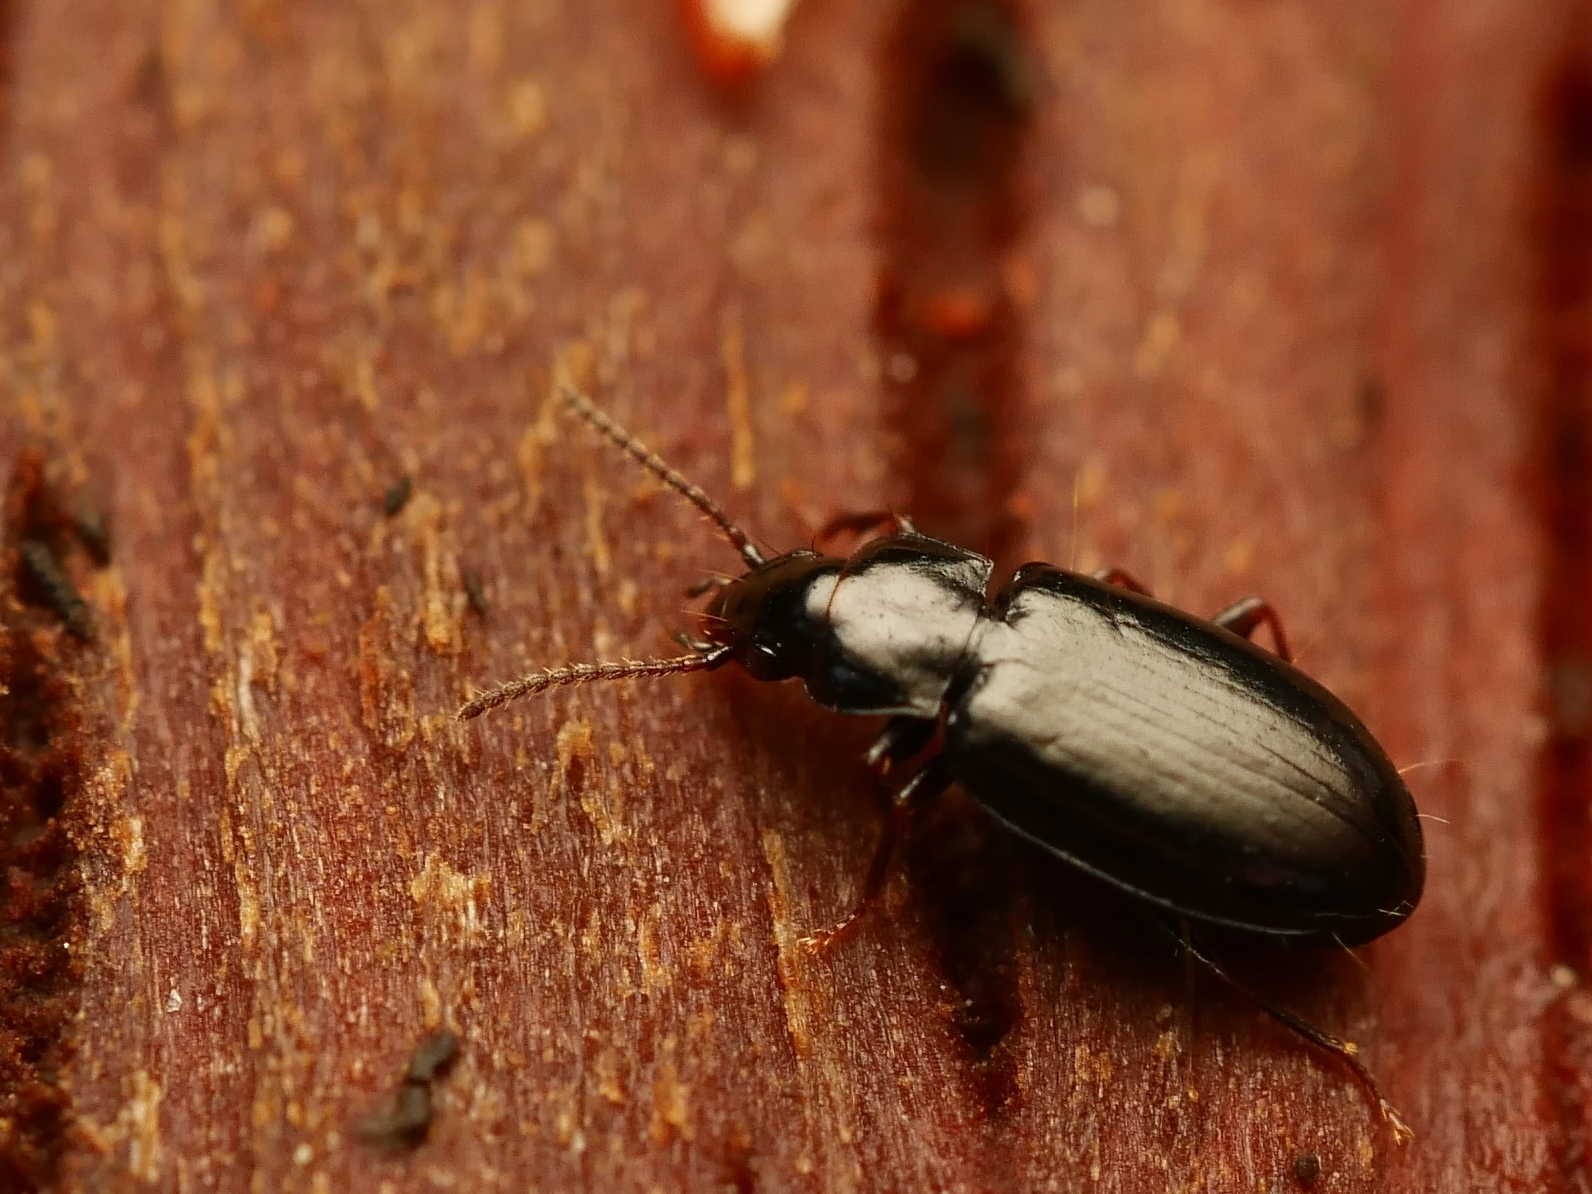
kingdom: Animalia
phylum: Arthropoda
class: Insecta
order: Coleoptera
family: Carabidae
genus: Tachyta
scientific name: Tachyta nana
